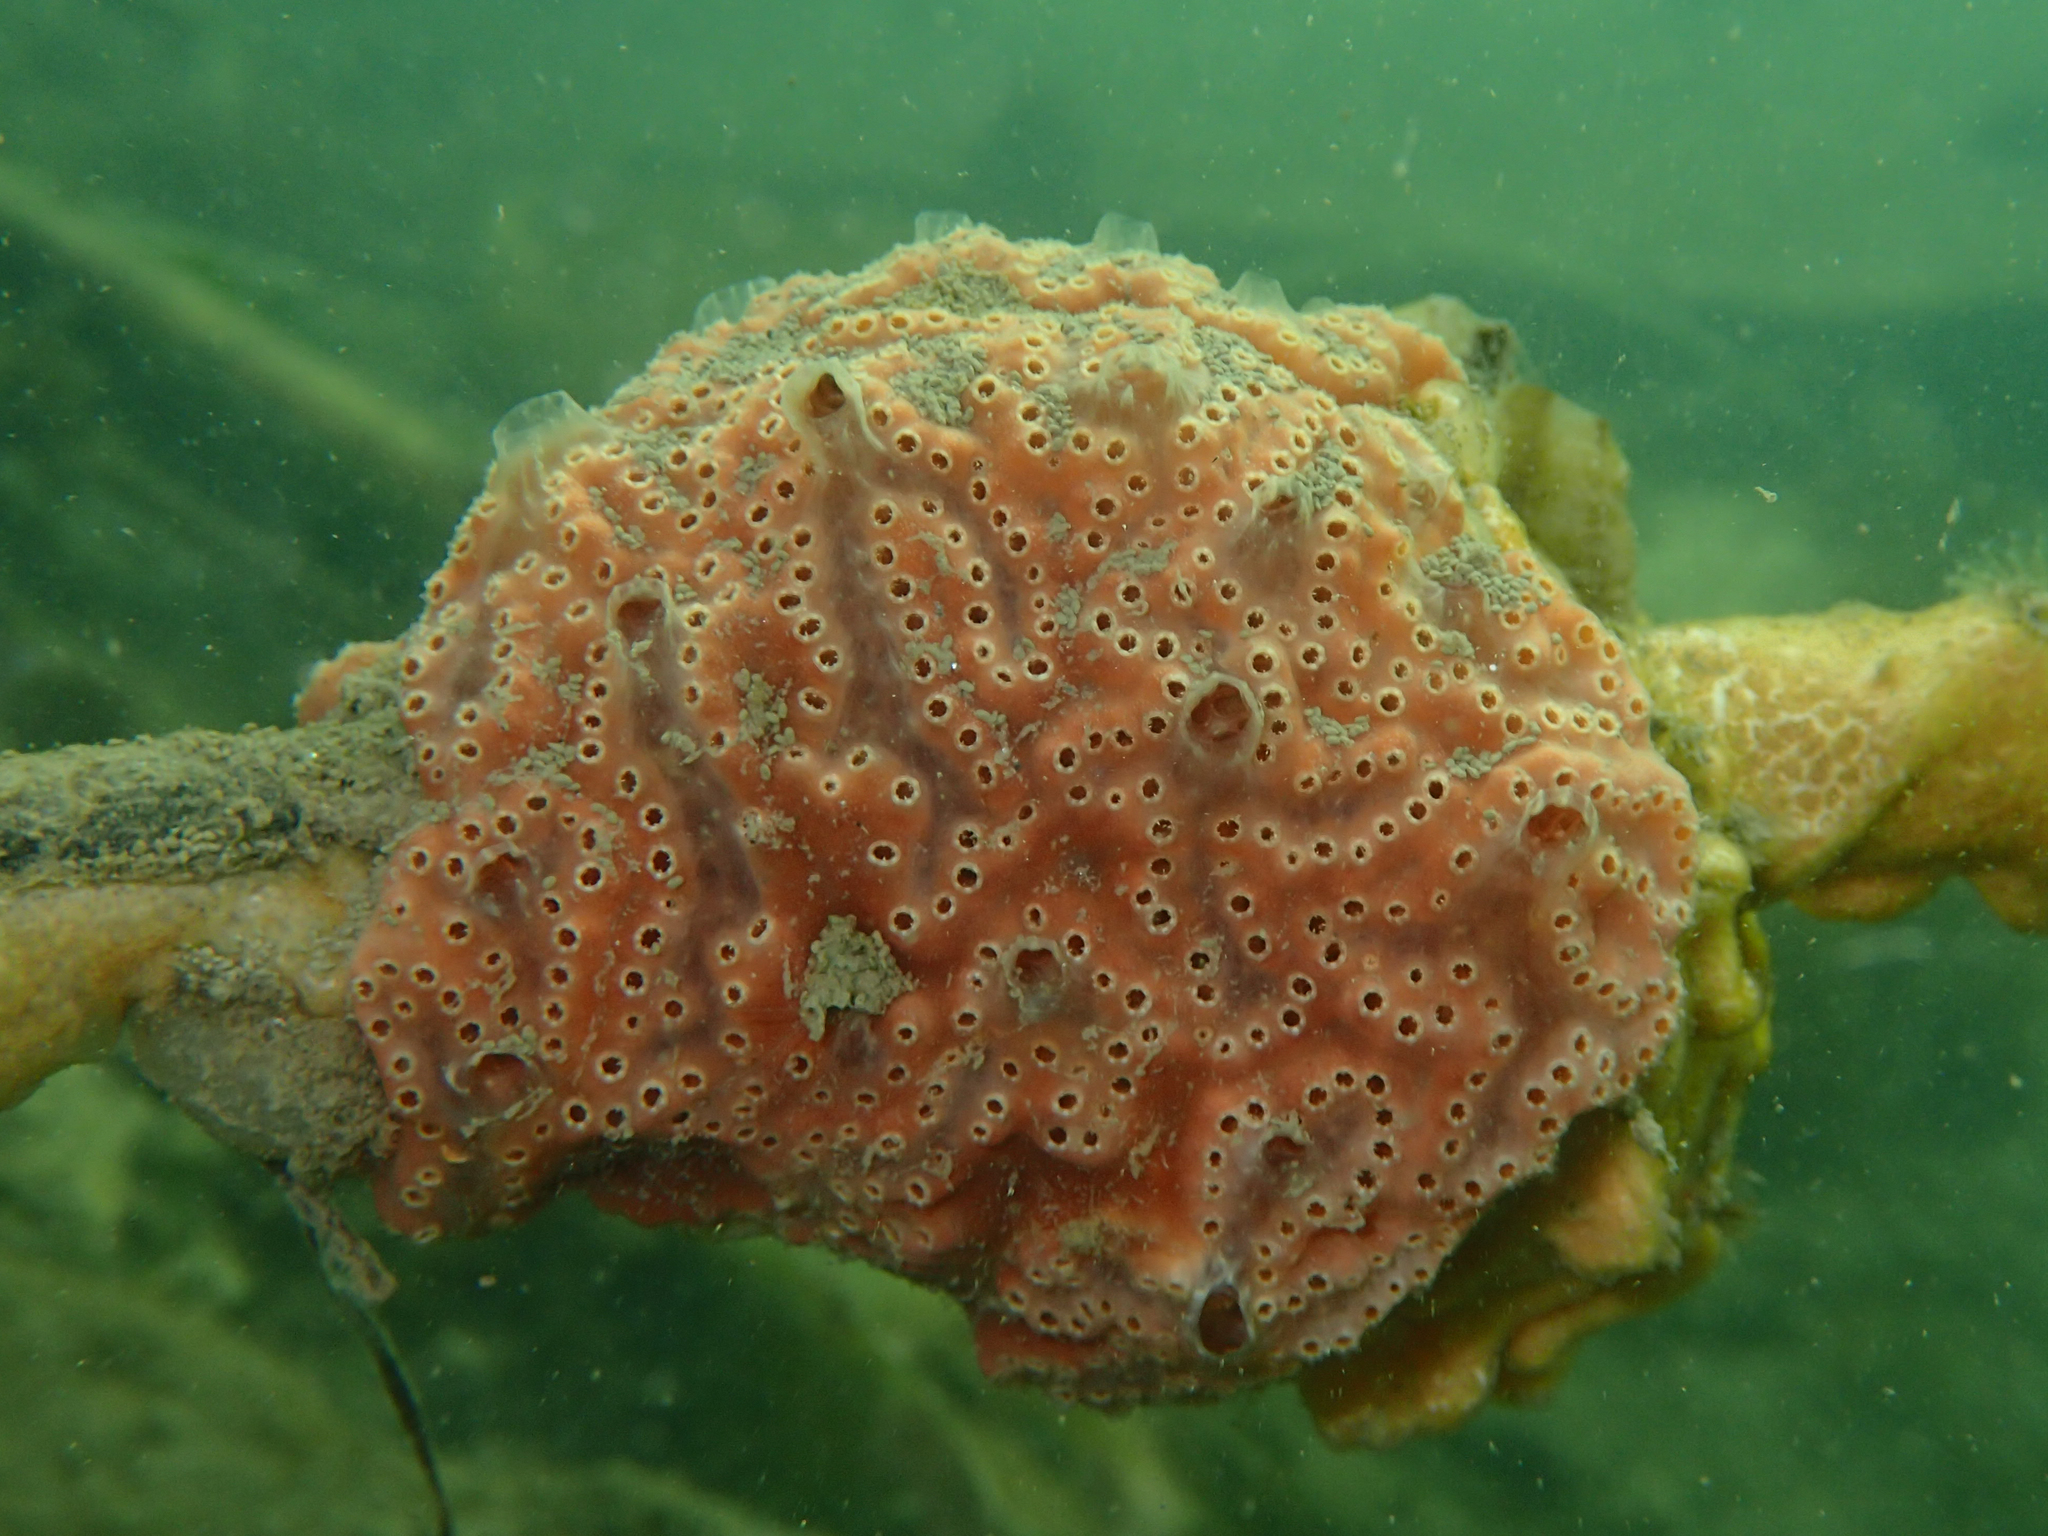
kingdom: Animalia
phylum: Chordata
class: Ascidiacea
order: Aplousobranchia
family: Polyclinidae
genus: Aplidium
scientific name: Aplidium nordmanni
